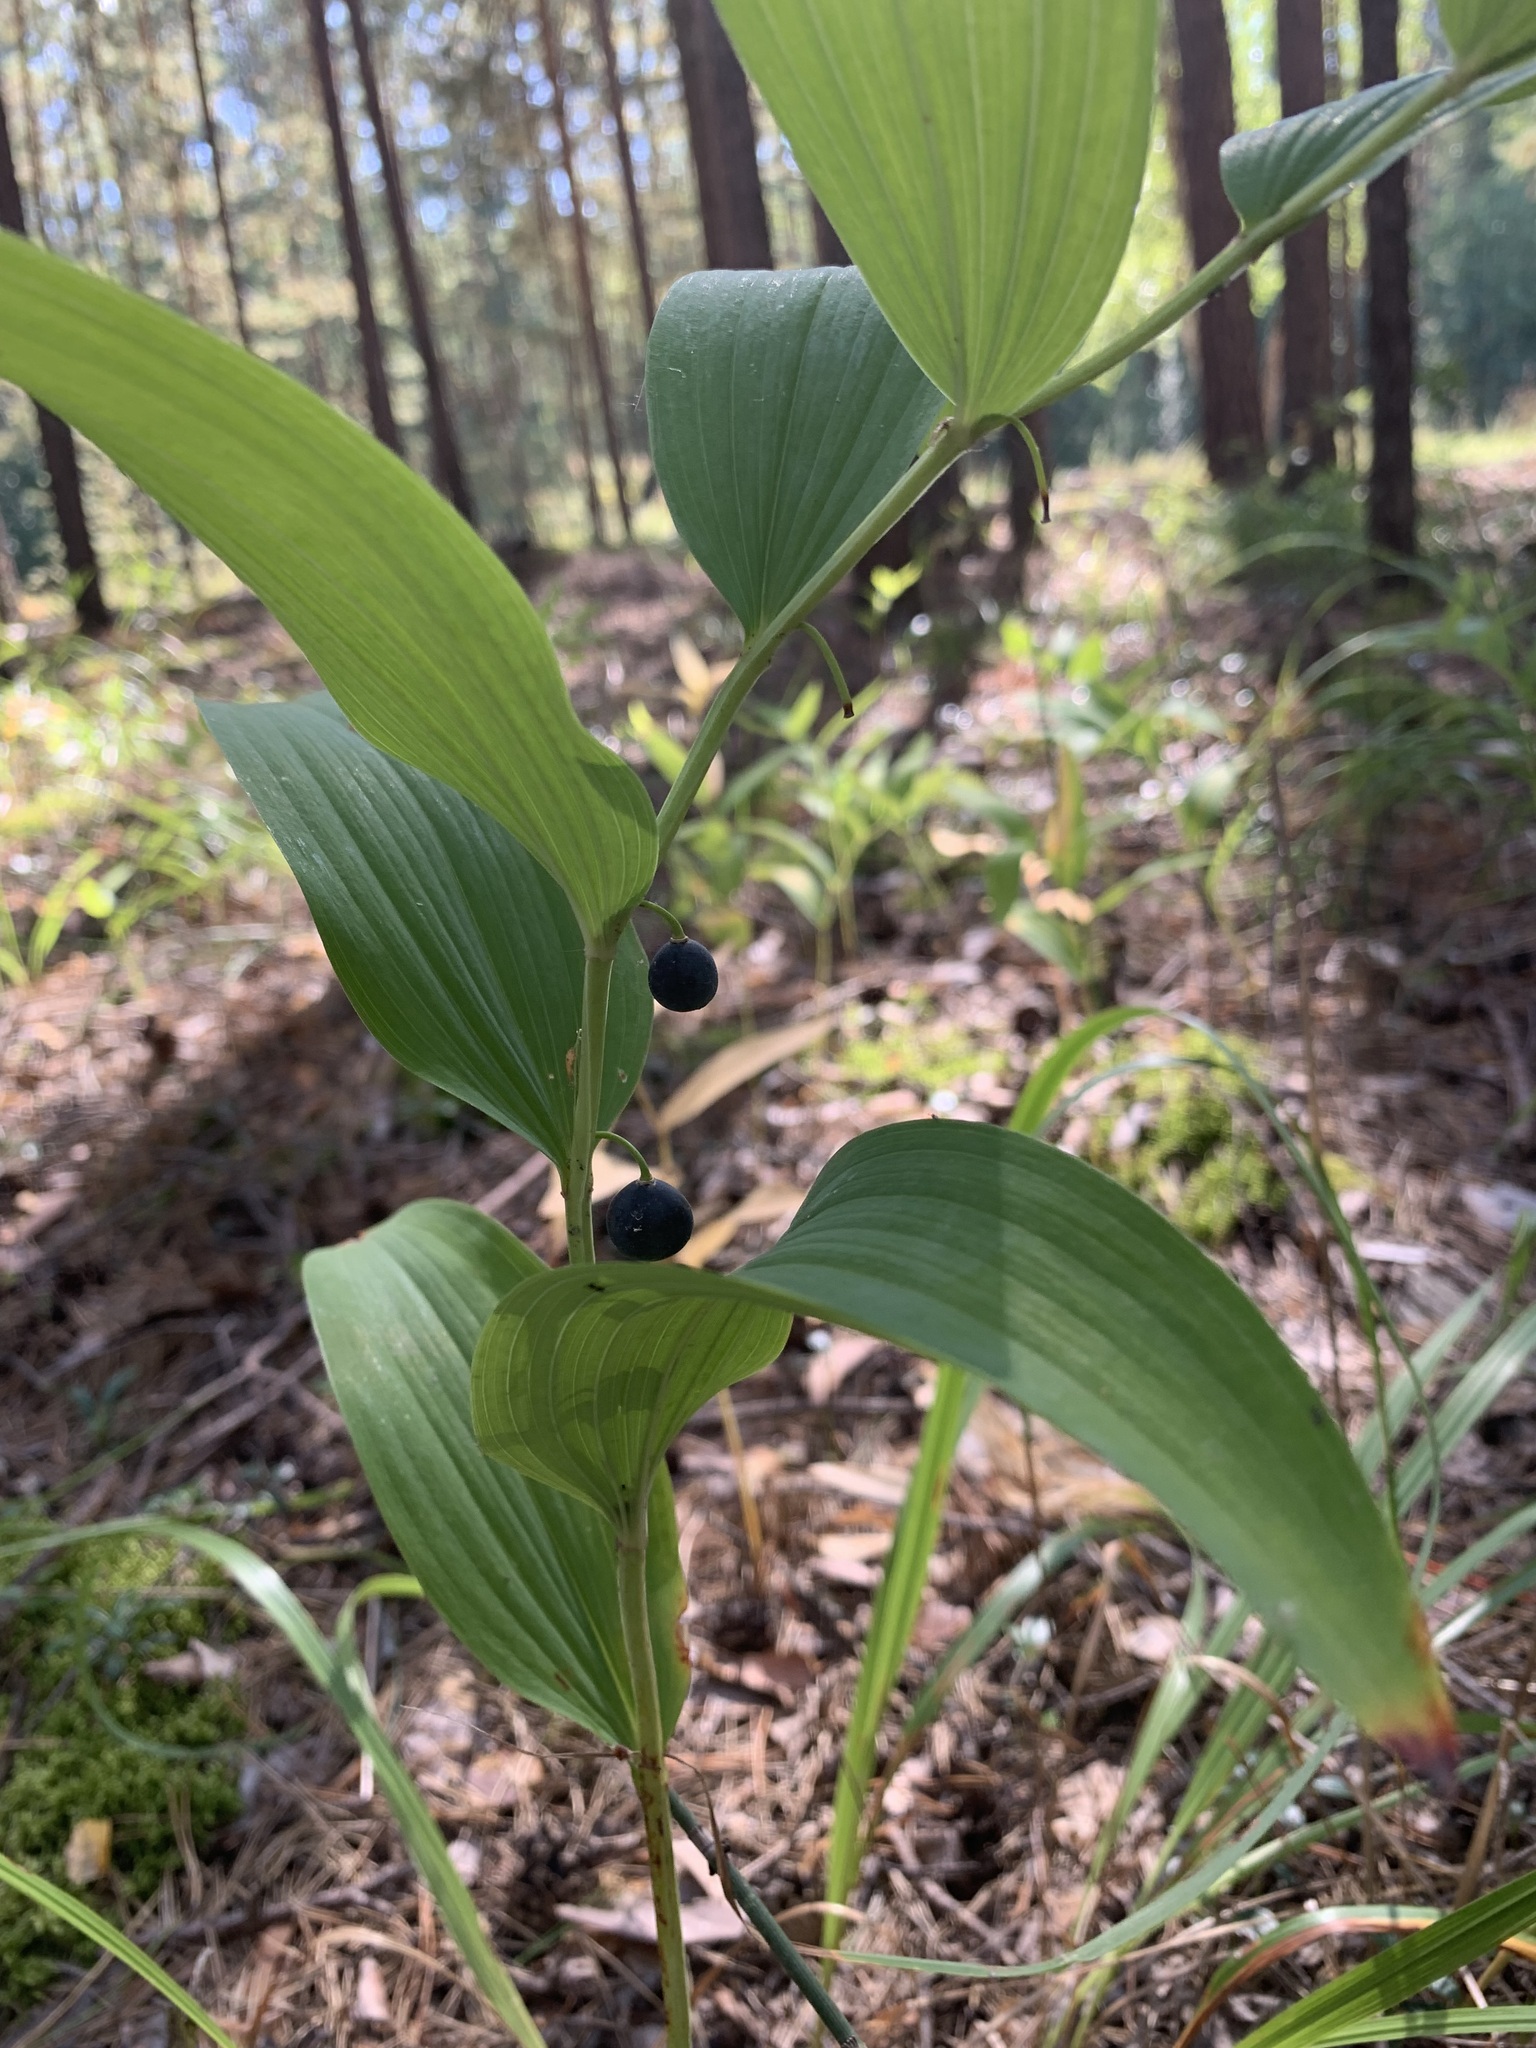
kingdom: Plantae
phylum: Tracheophyta
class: Liliopsida
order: Asparagales
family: Asparagaceae
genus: Polygonatum
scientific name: Polygonatum odoratum
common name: Angular solomon's-seal
